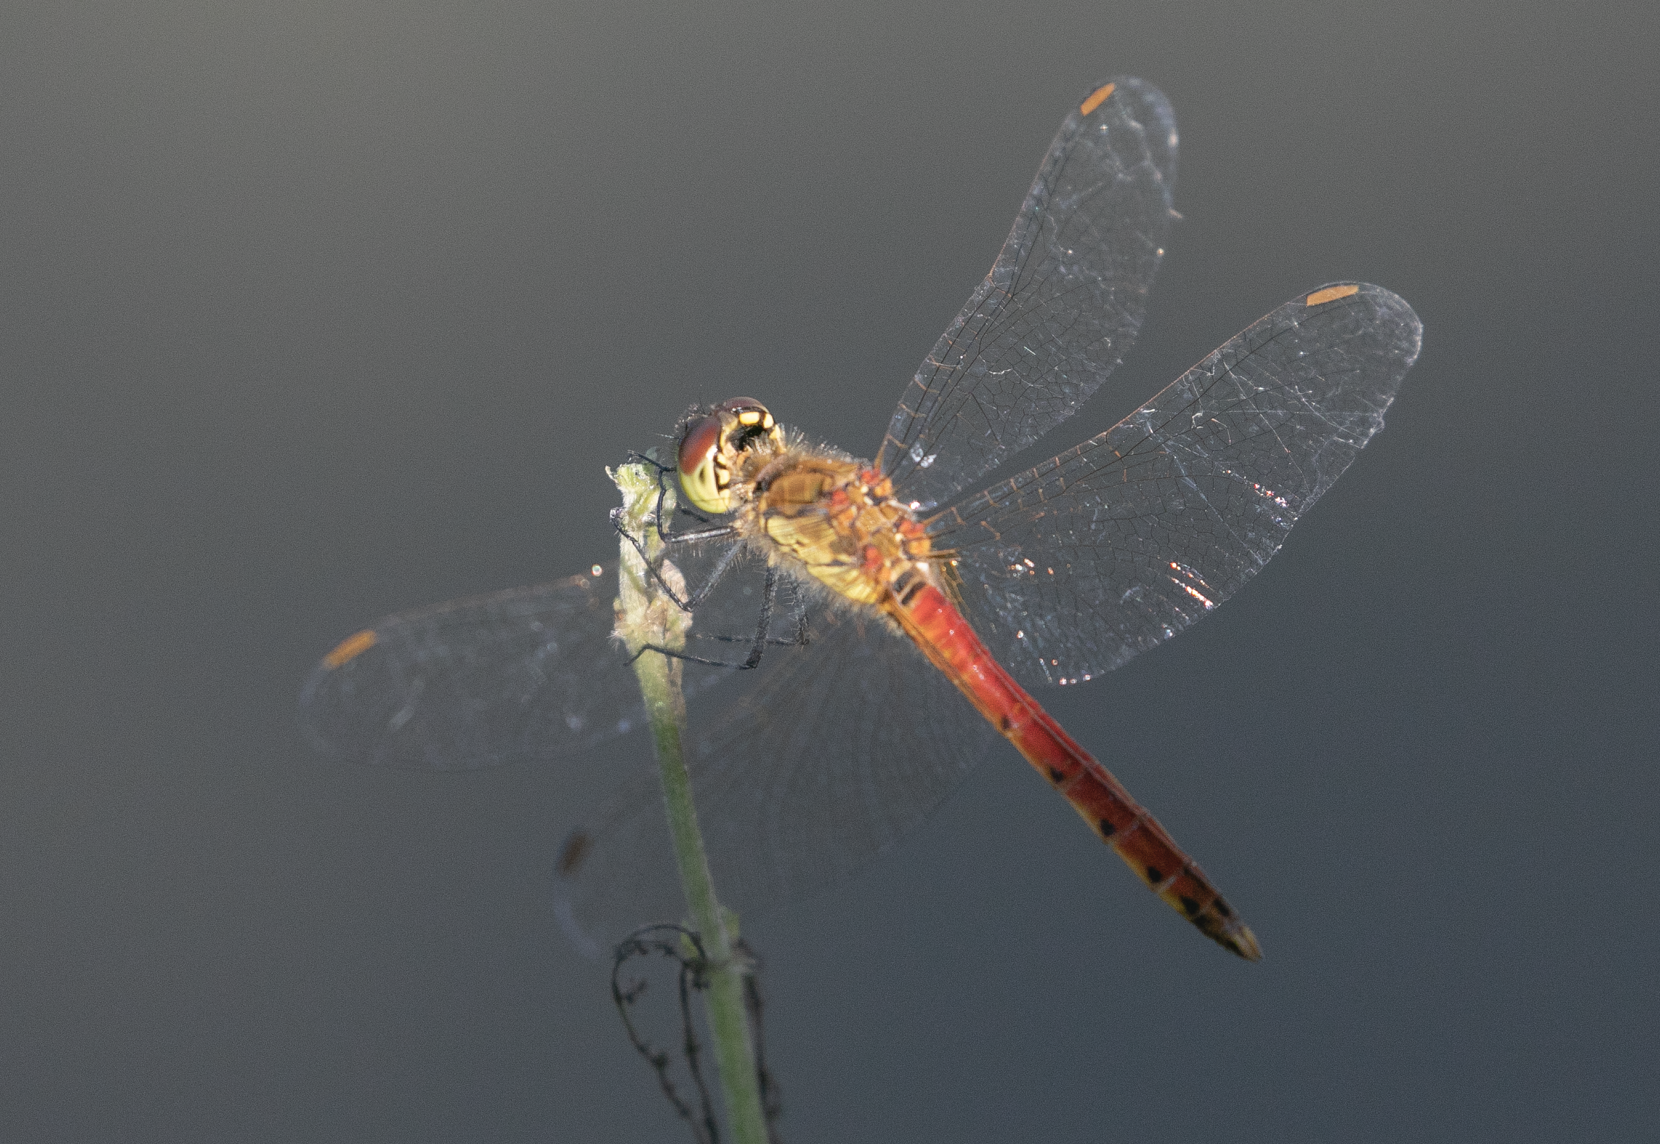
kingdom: Animalia
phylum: Arthropoda
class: Insecta
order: Odonata
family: Libellulidae
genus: Sympetrum
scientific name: Sympetrum depressiusculum
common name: Spotted darter
